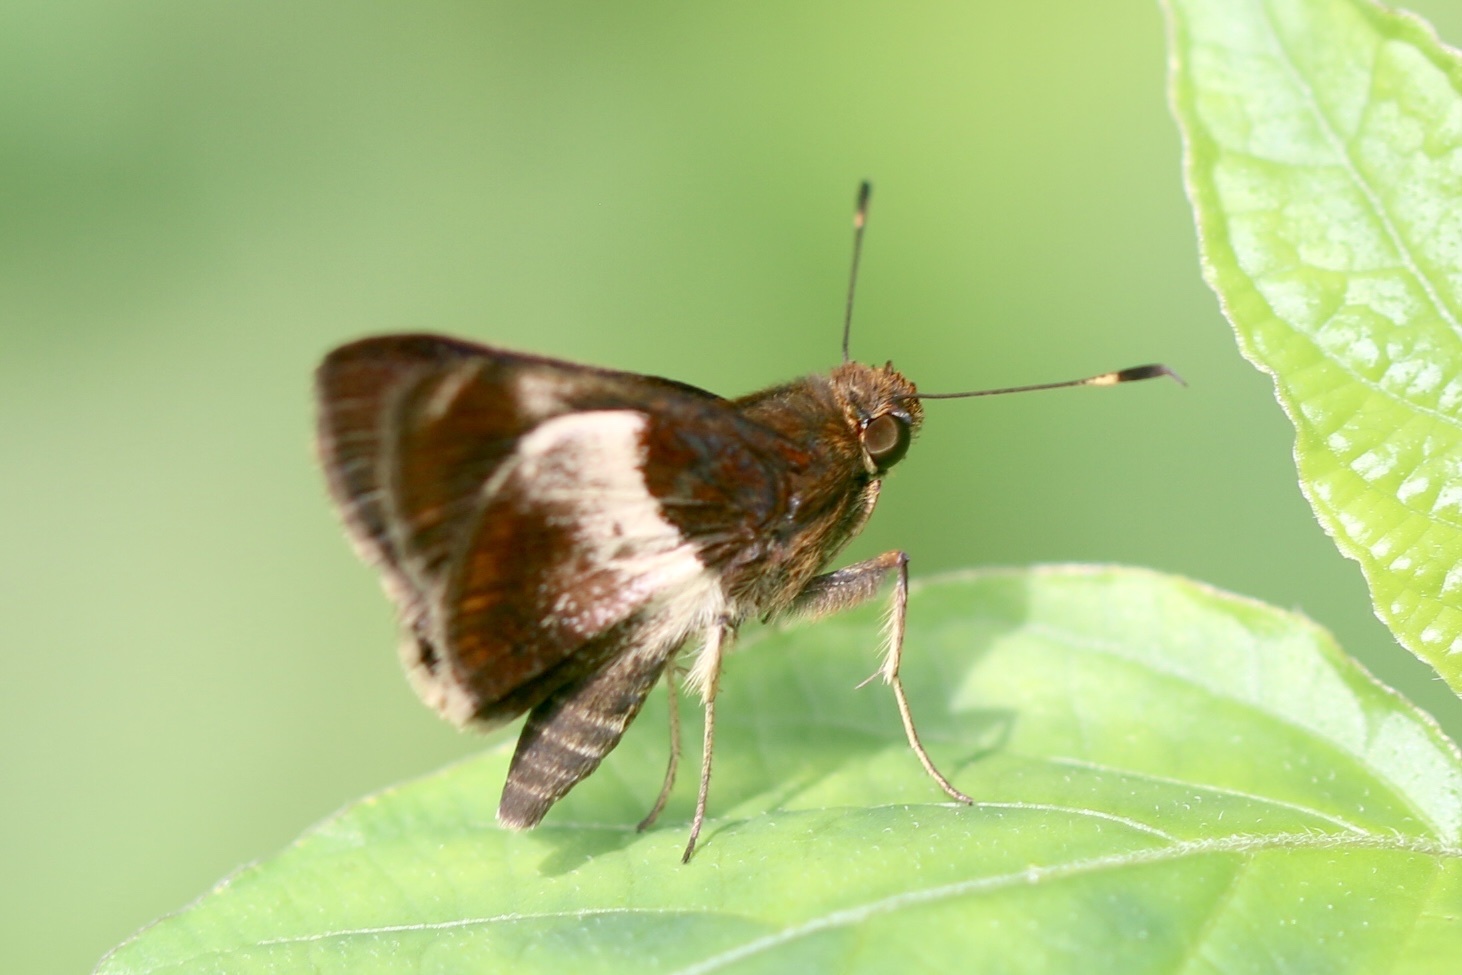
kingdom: Animalia
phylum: Arthropoda
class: Insecta
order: Lepidoptera
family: Hesperiidae
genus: Moeris
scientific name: Moeris Remella vopiscus
